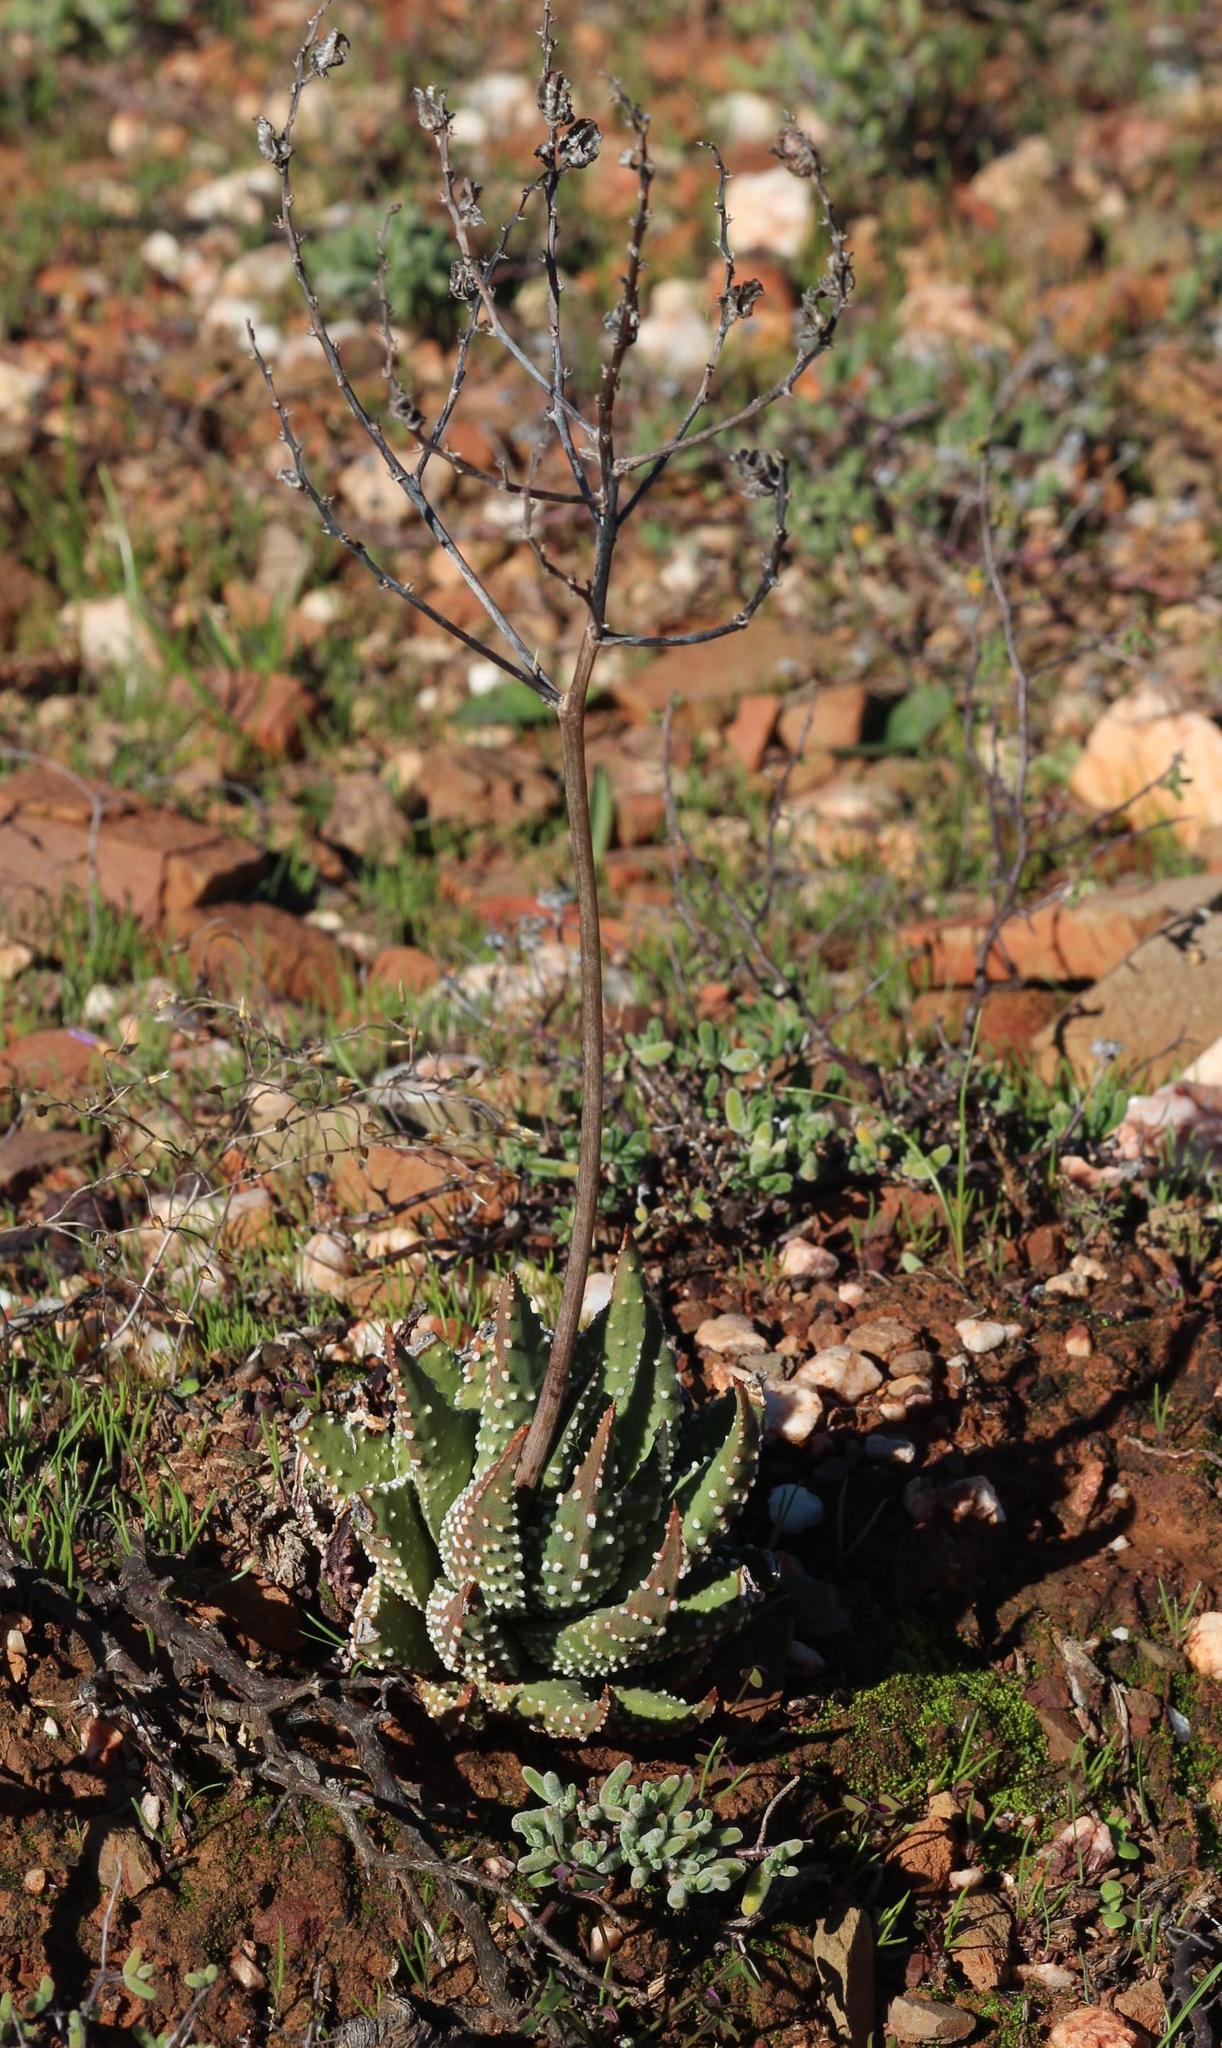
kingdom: Plantae
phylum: Tracheophyta
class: Liliopsida
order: Asparagales
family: Asphodelaceae
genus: Tulista
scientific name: Tulista pumila
